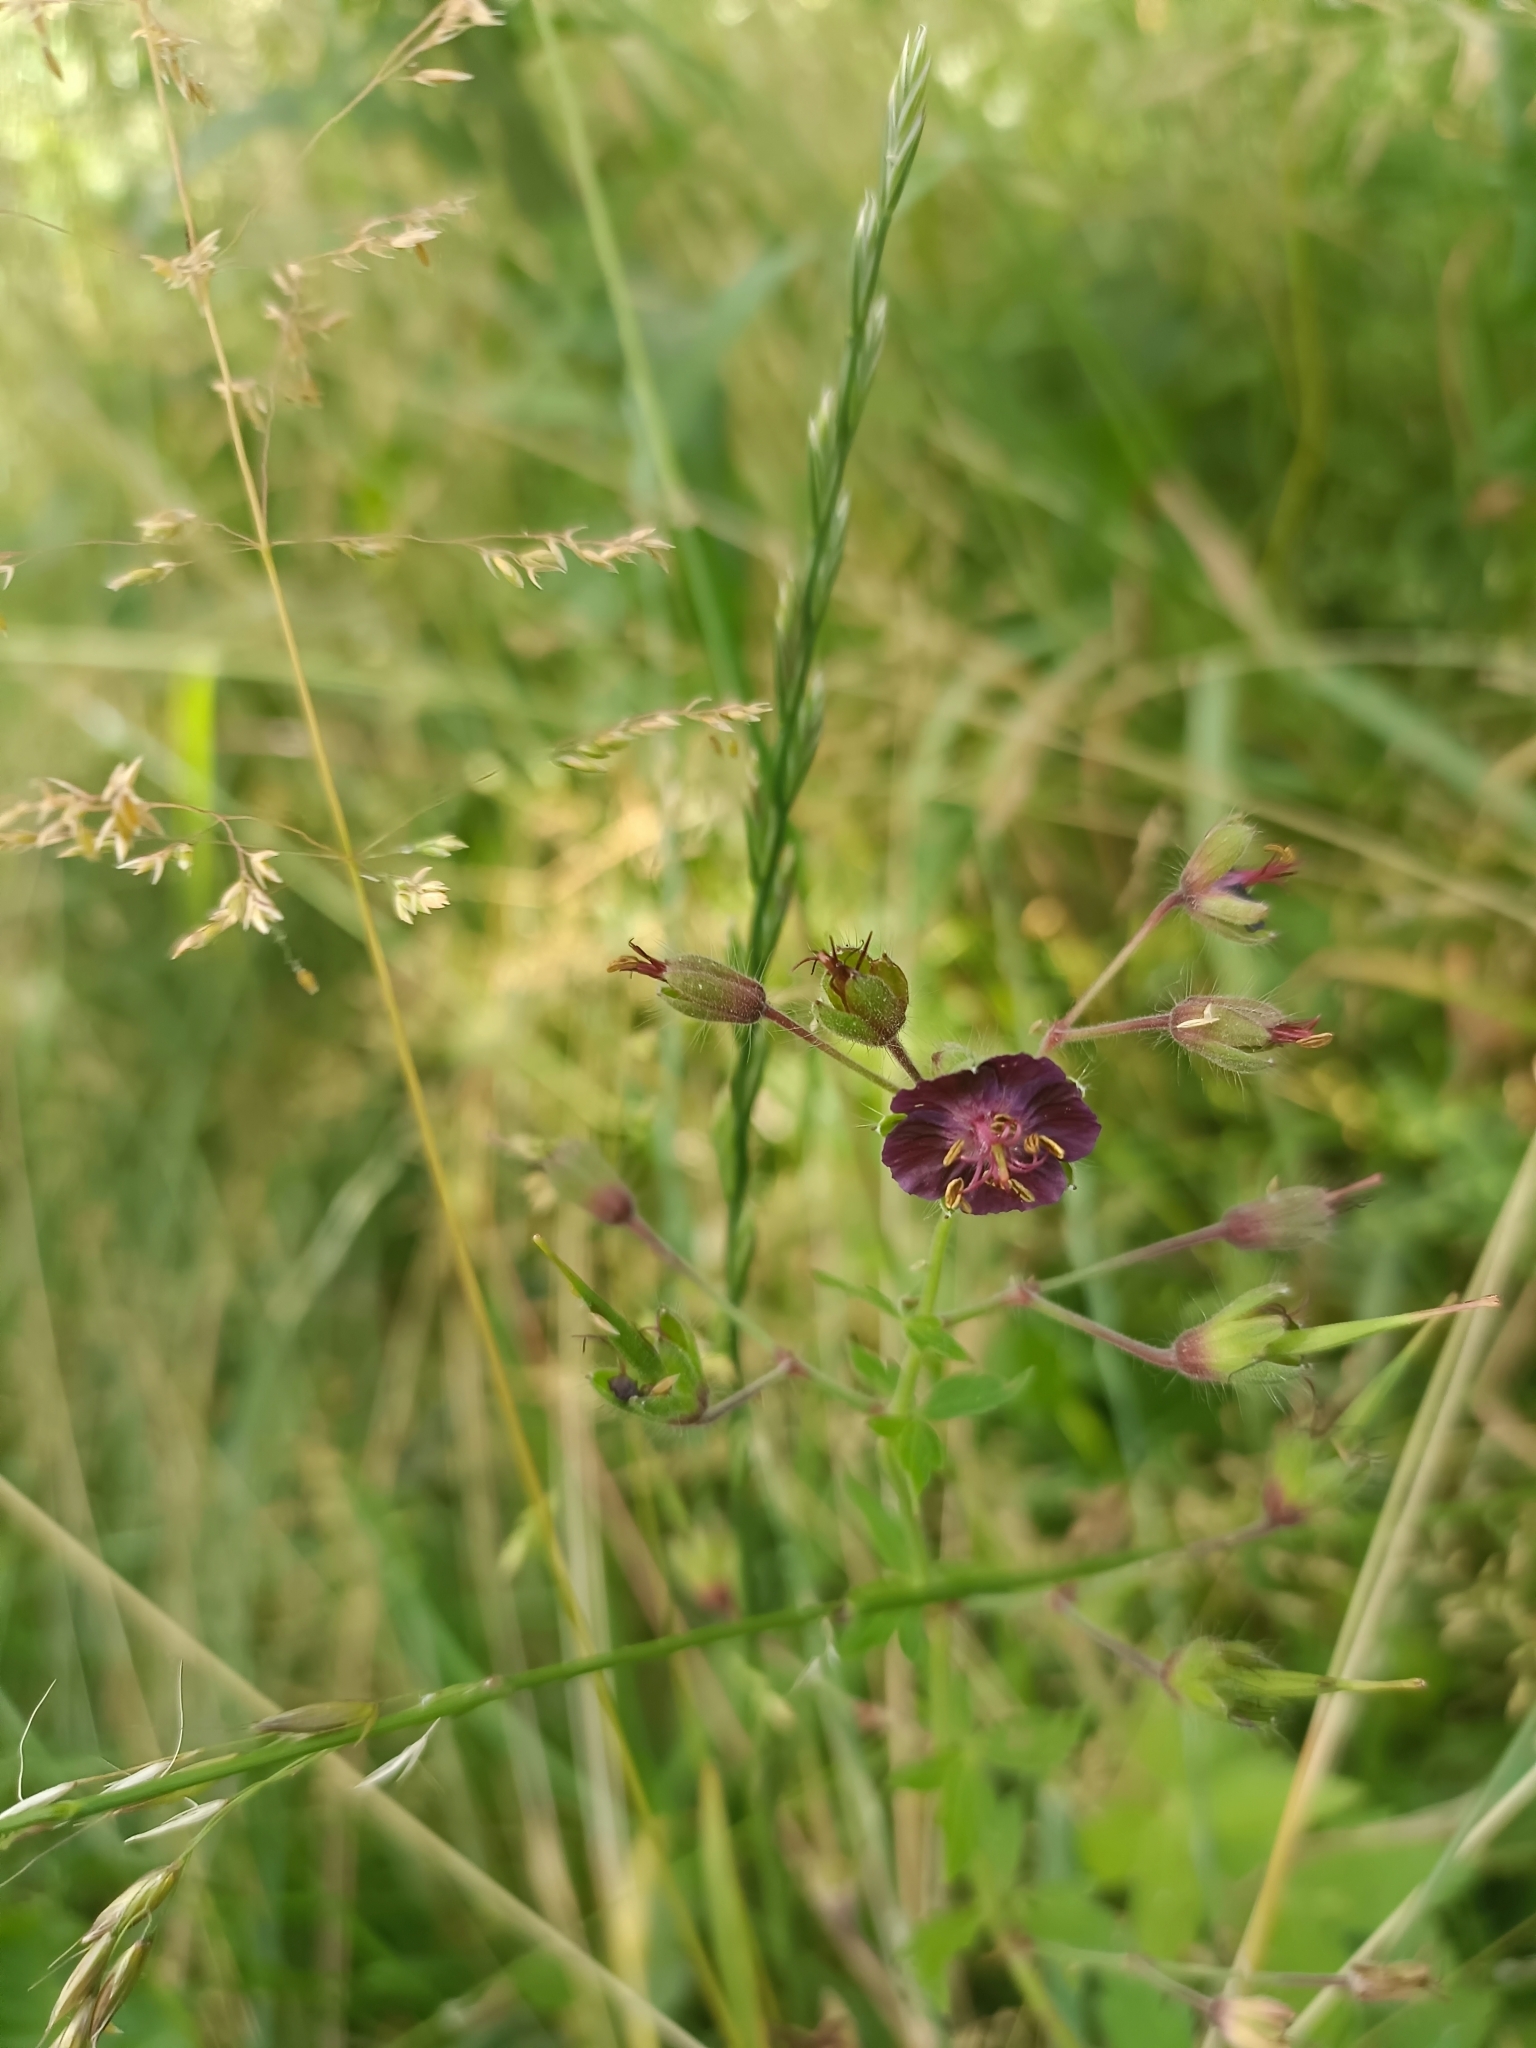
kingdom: Plantae
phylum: Tracheophyta
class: Magnoliopsida
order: Geraniales
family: Geraniaceae
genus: Geranium
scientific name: Geranium phaeum
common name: Dusky crane's-bill
